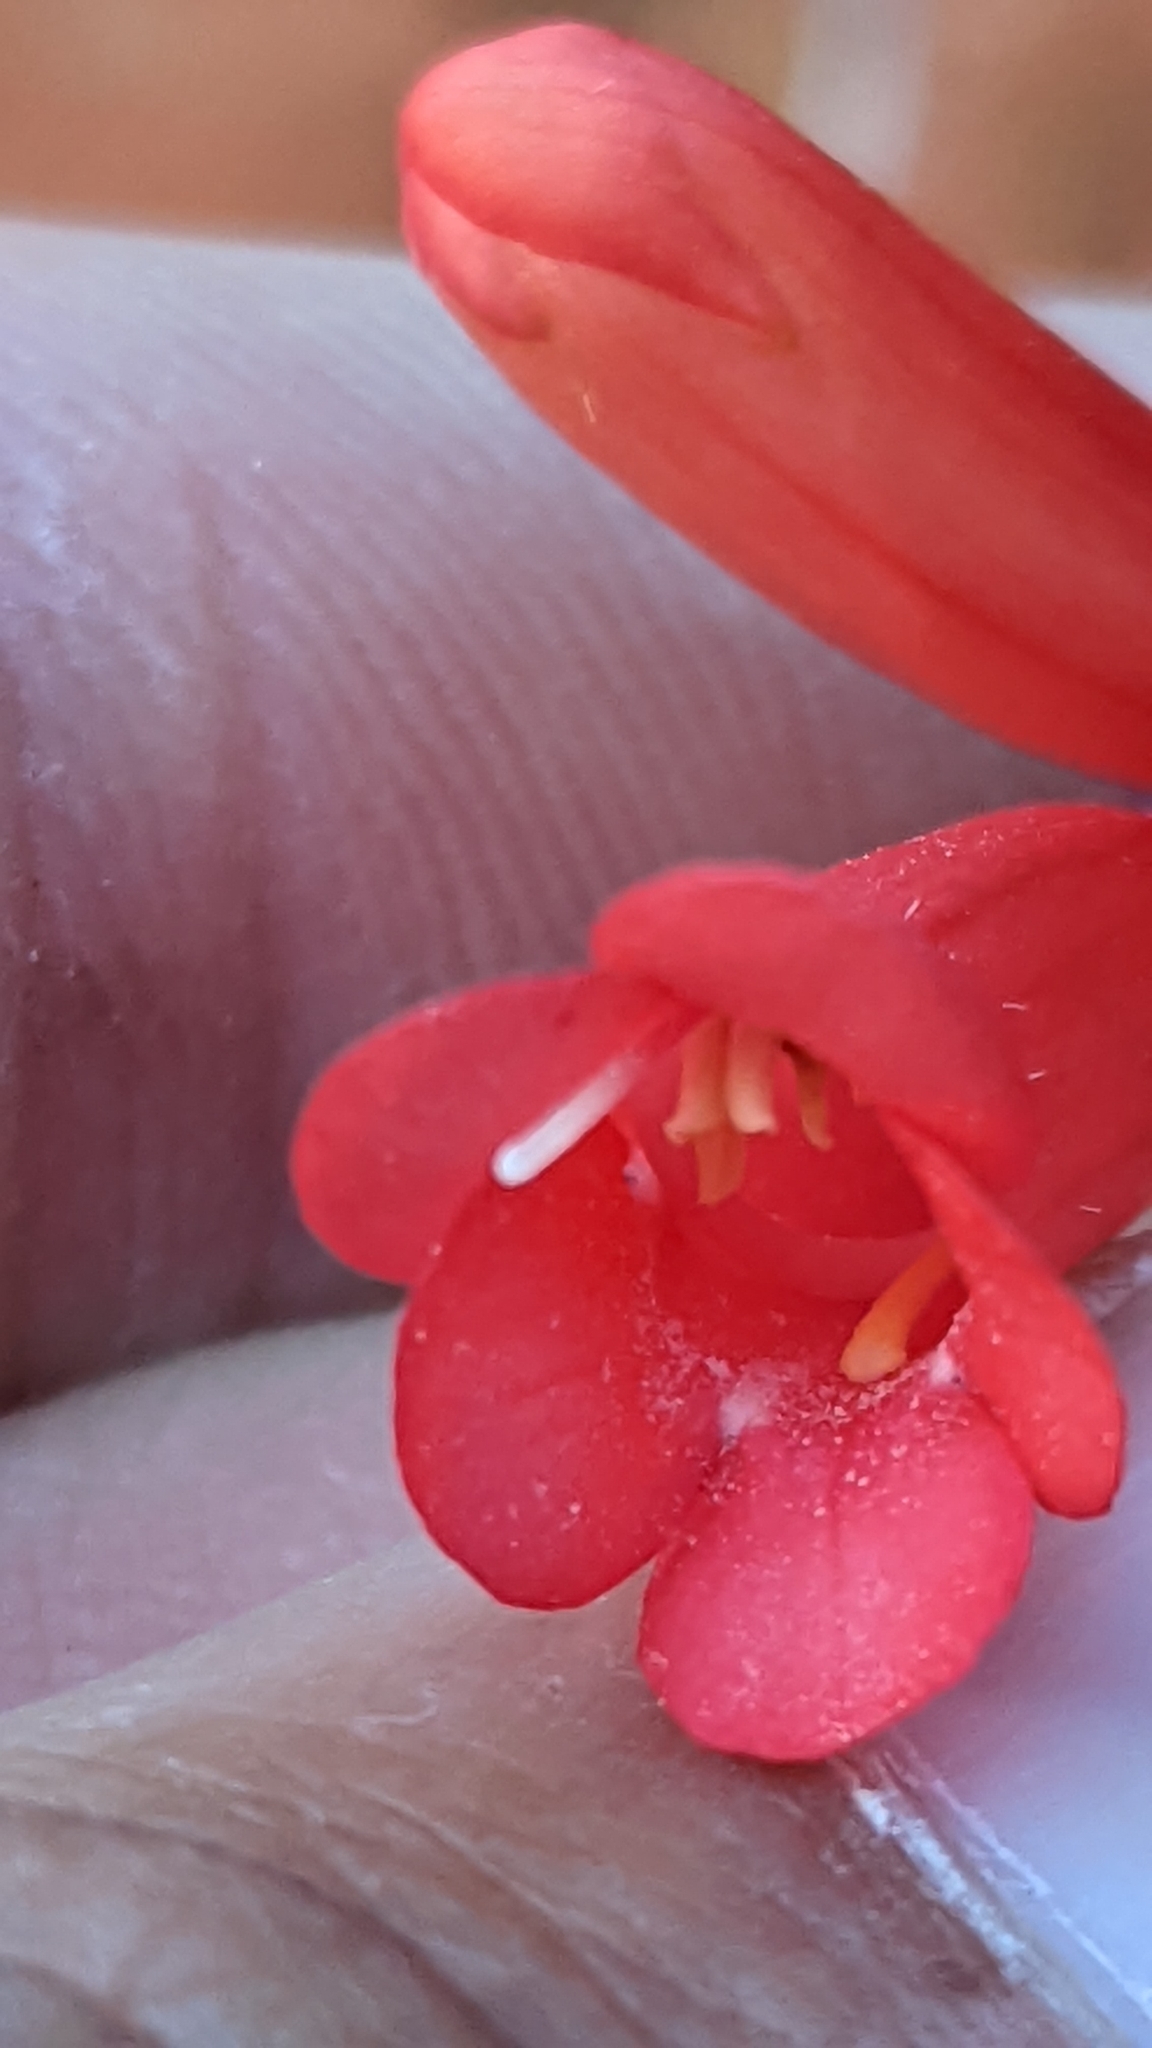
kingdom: Plantae
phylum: Tracheophyta
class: Magnoliopsida
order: Lamiales
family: Plantaginaceae
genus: Penstemon
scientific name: Penstemon eatonii
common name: Eaton's penstemon
